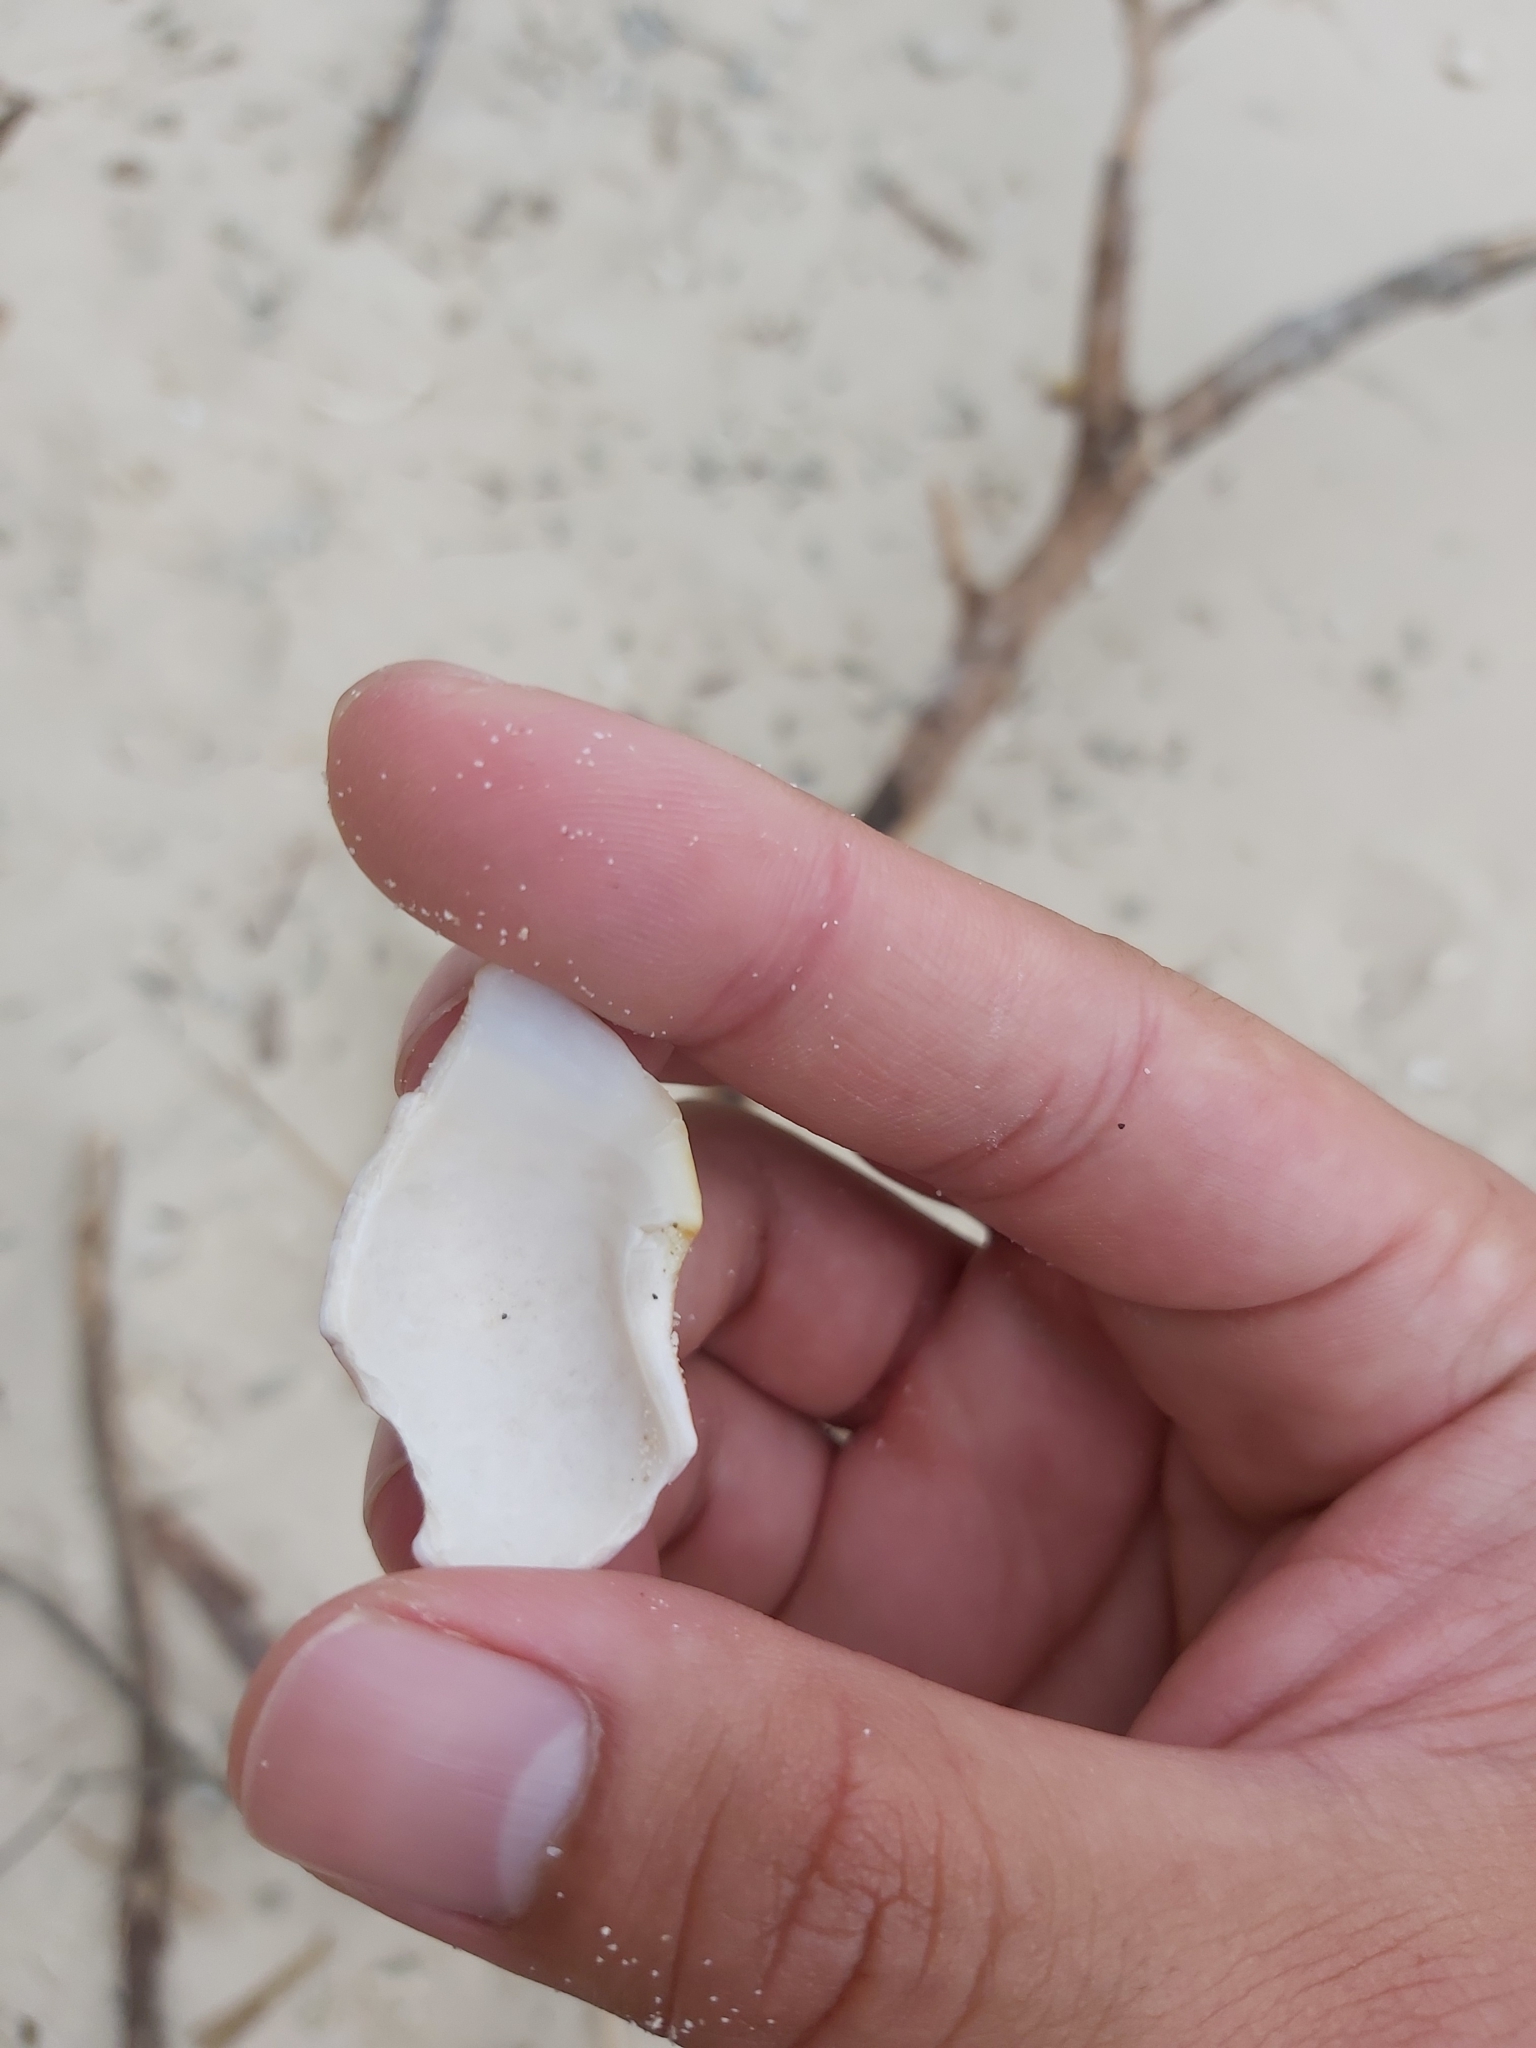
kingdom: Animalia
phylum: Mollusca
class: Gastropoda
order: Trochida
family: Turbinidae
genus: Turbo
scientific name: Turbo petholatus
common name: Cat's-eye shell
